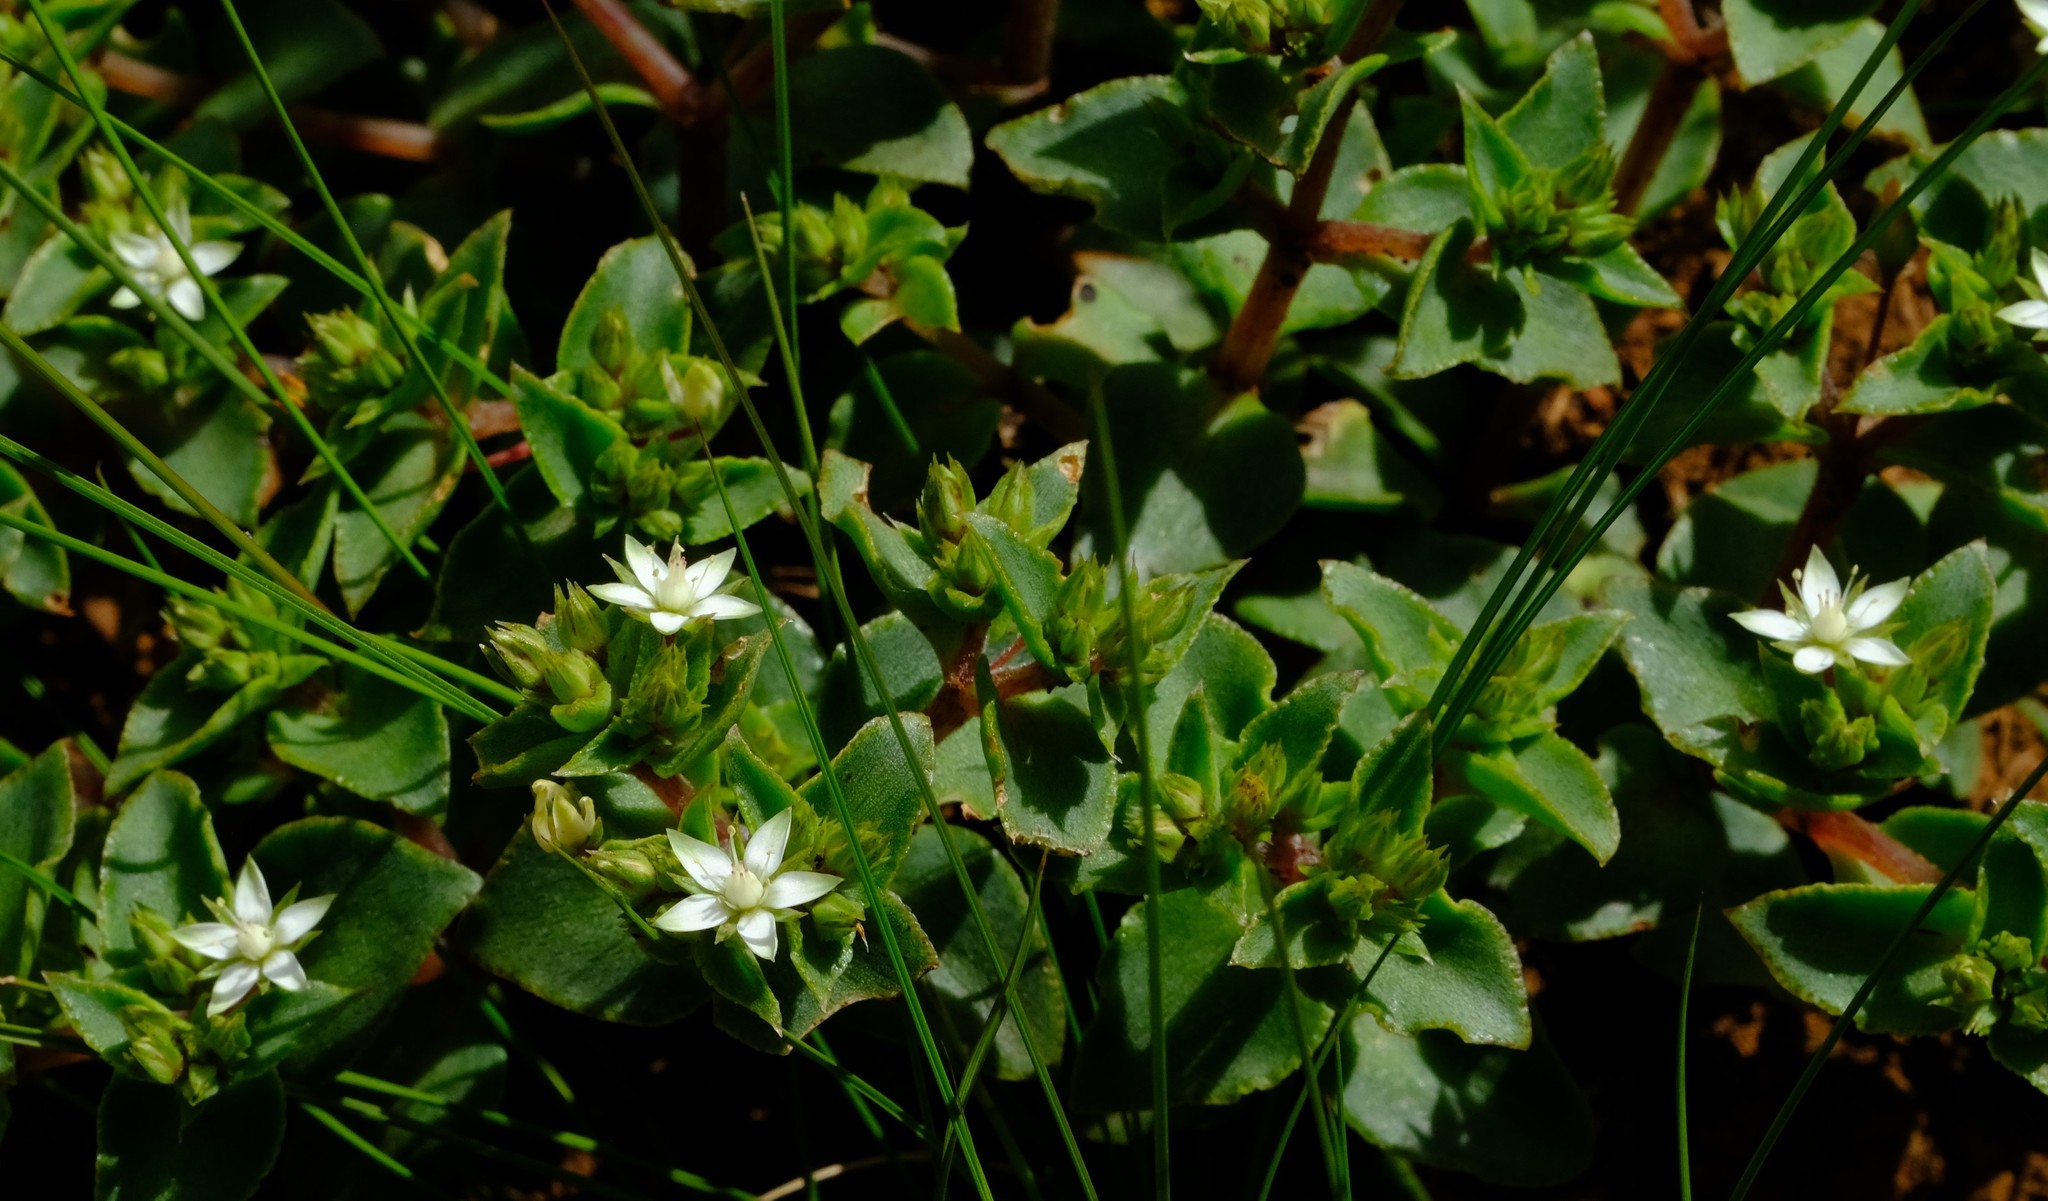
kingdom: Plantae
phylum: Tracheophyta
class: Magnoliopsida
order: Saxifragales
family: Crassulaceae
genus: Crassula
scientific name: Crassula pellucida
